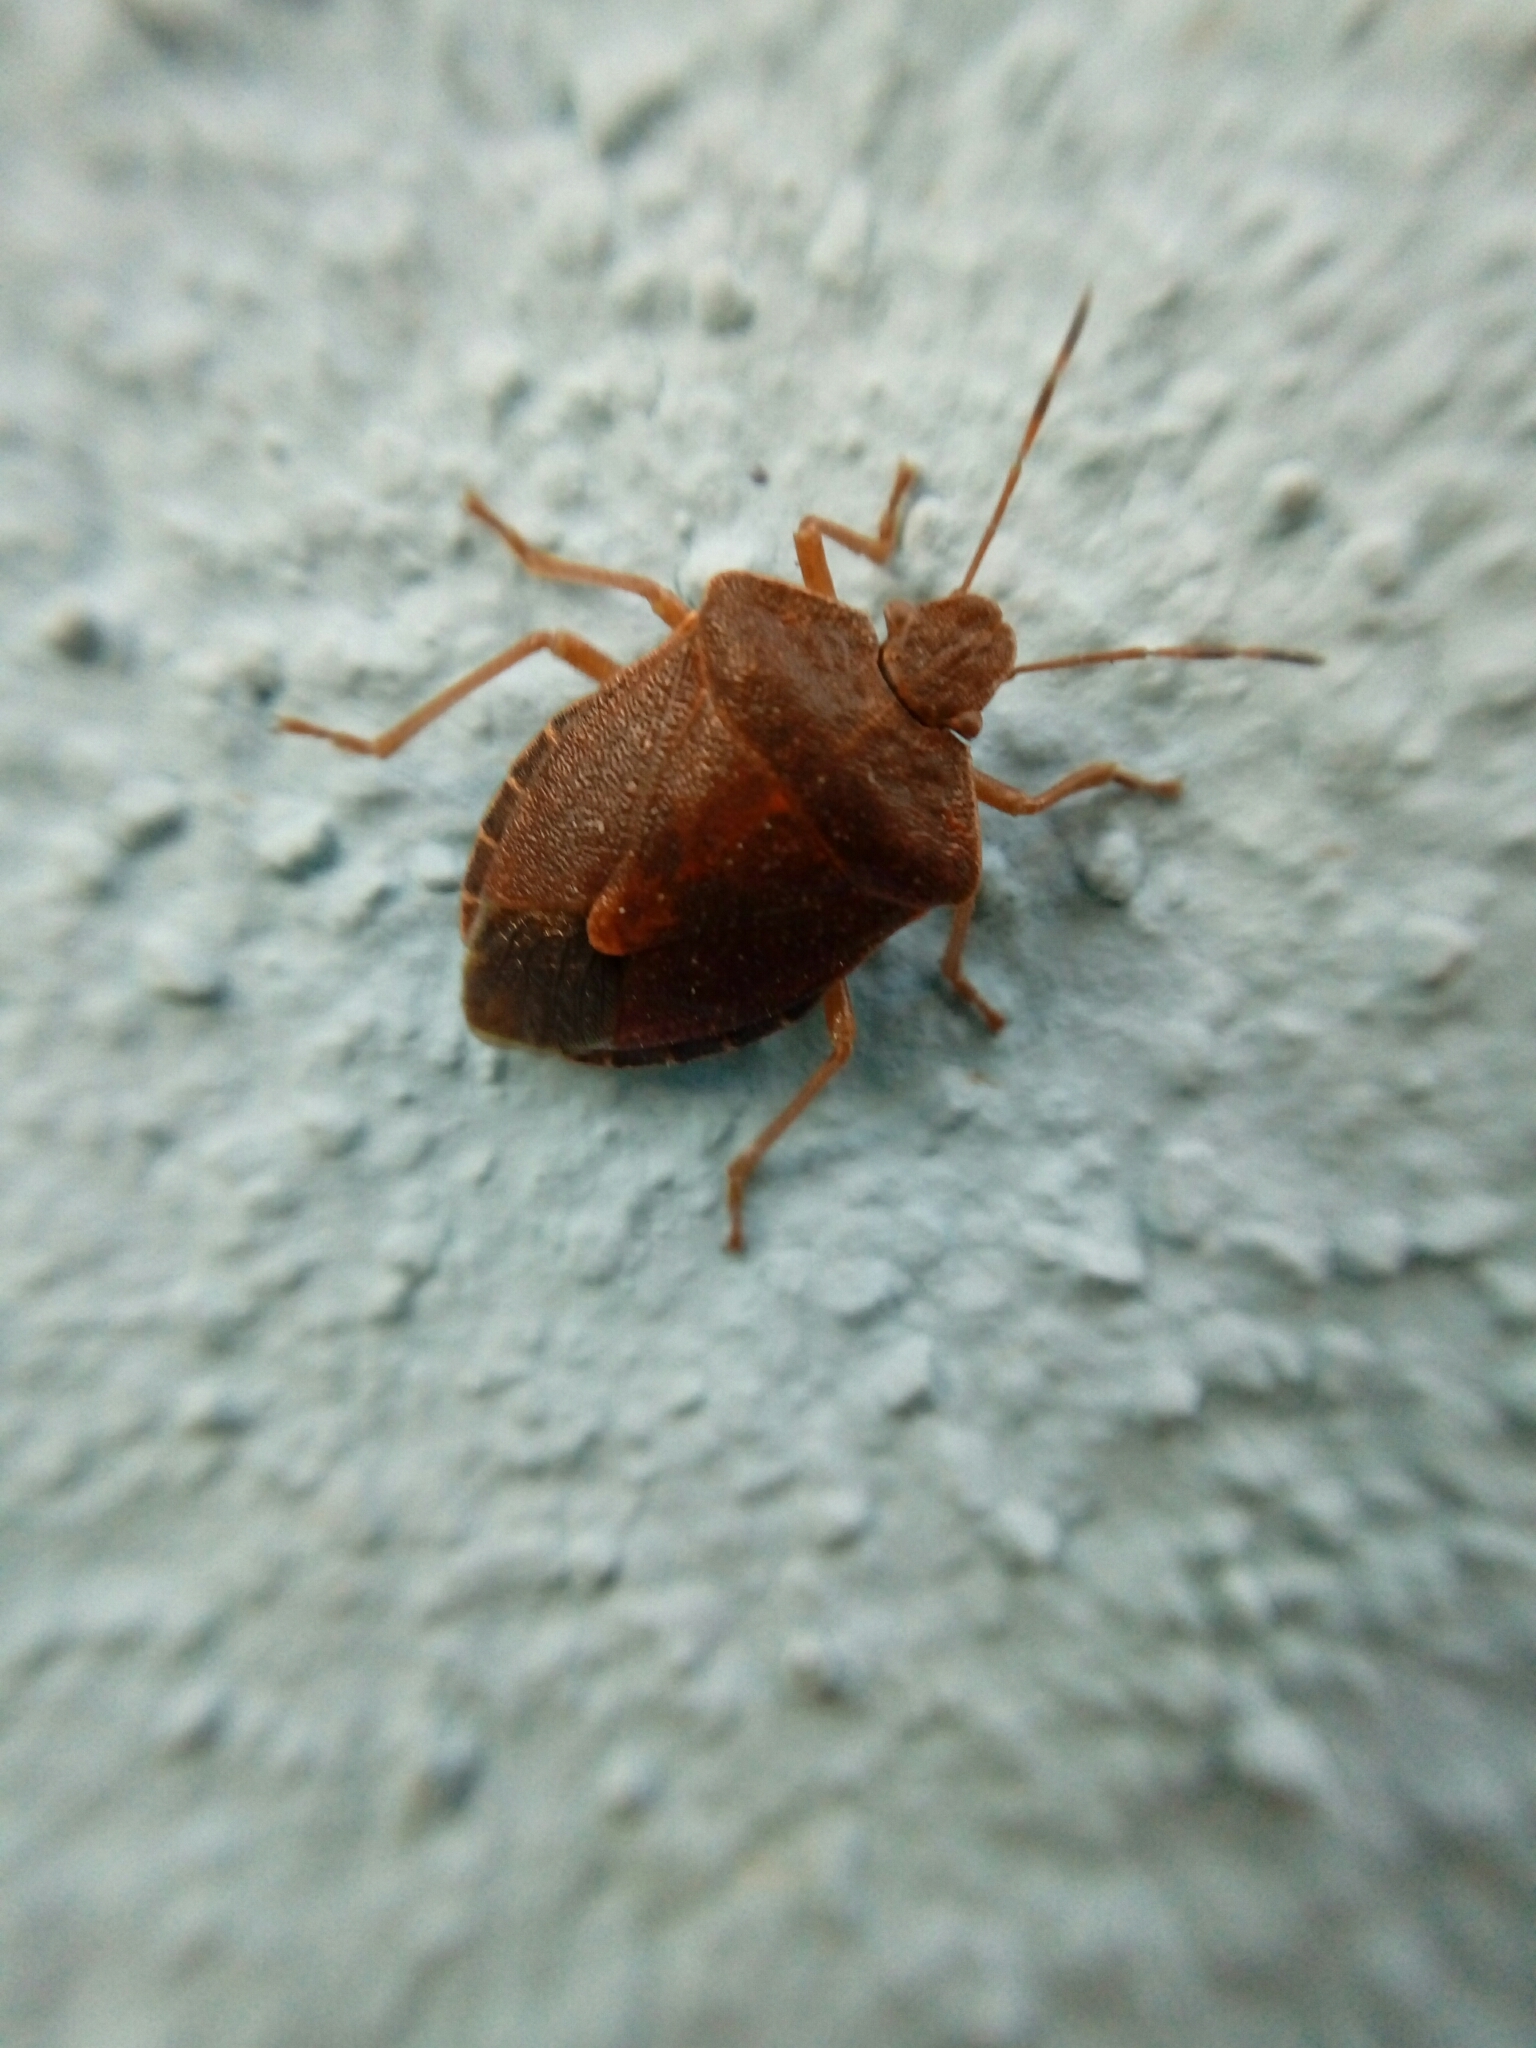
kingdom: Animalia
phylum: Arthropoda
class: Insecta
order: Hemiptera
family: Pentatomidae
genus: Palomena
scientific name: Palomena prasina
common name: Green shieldbug
